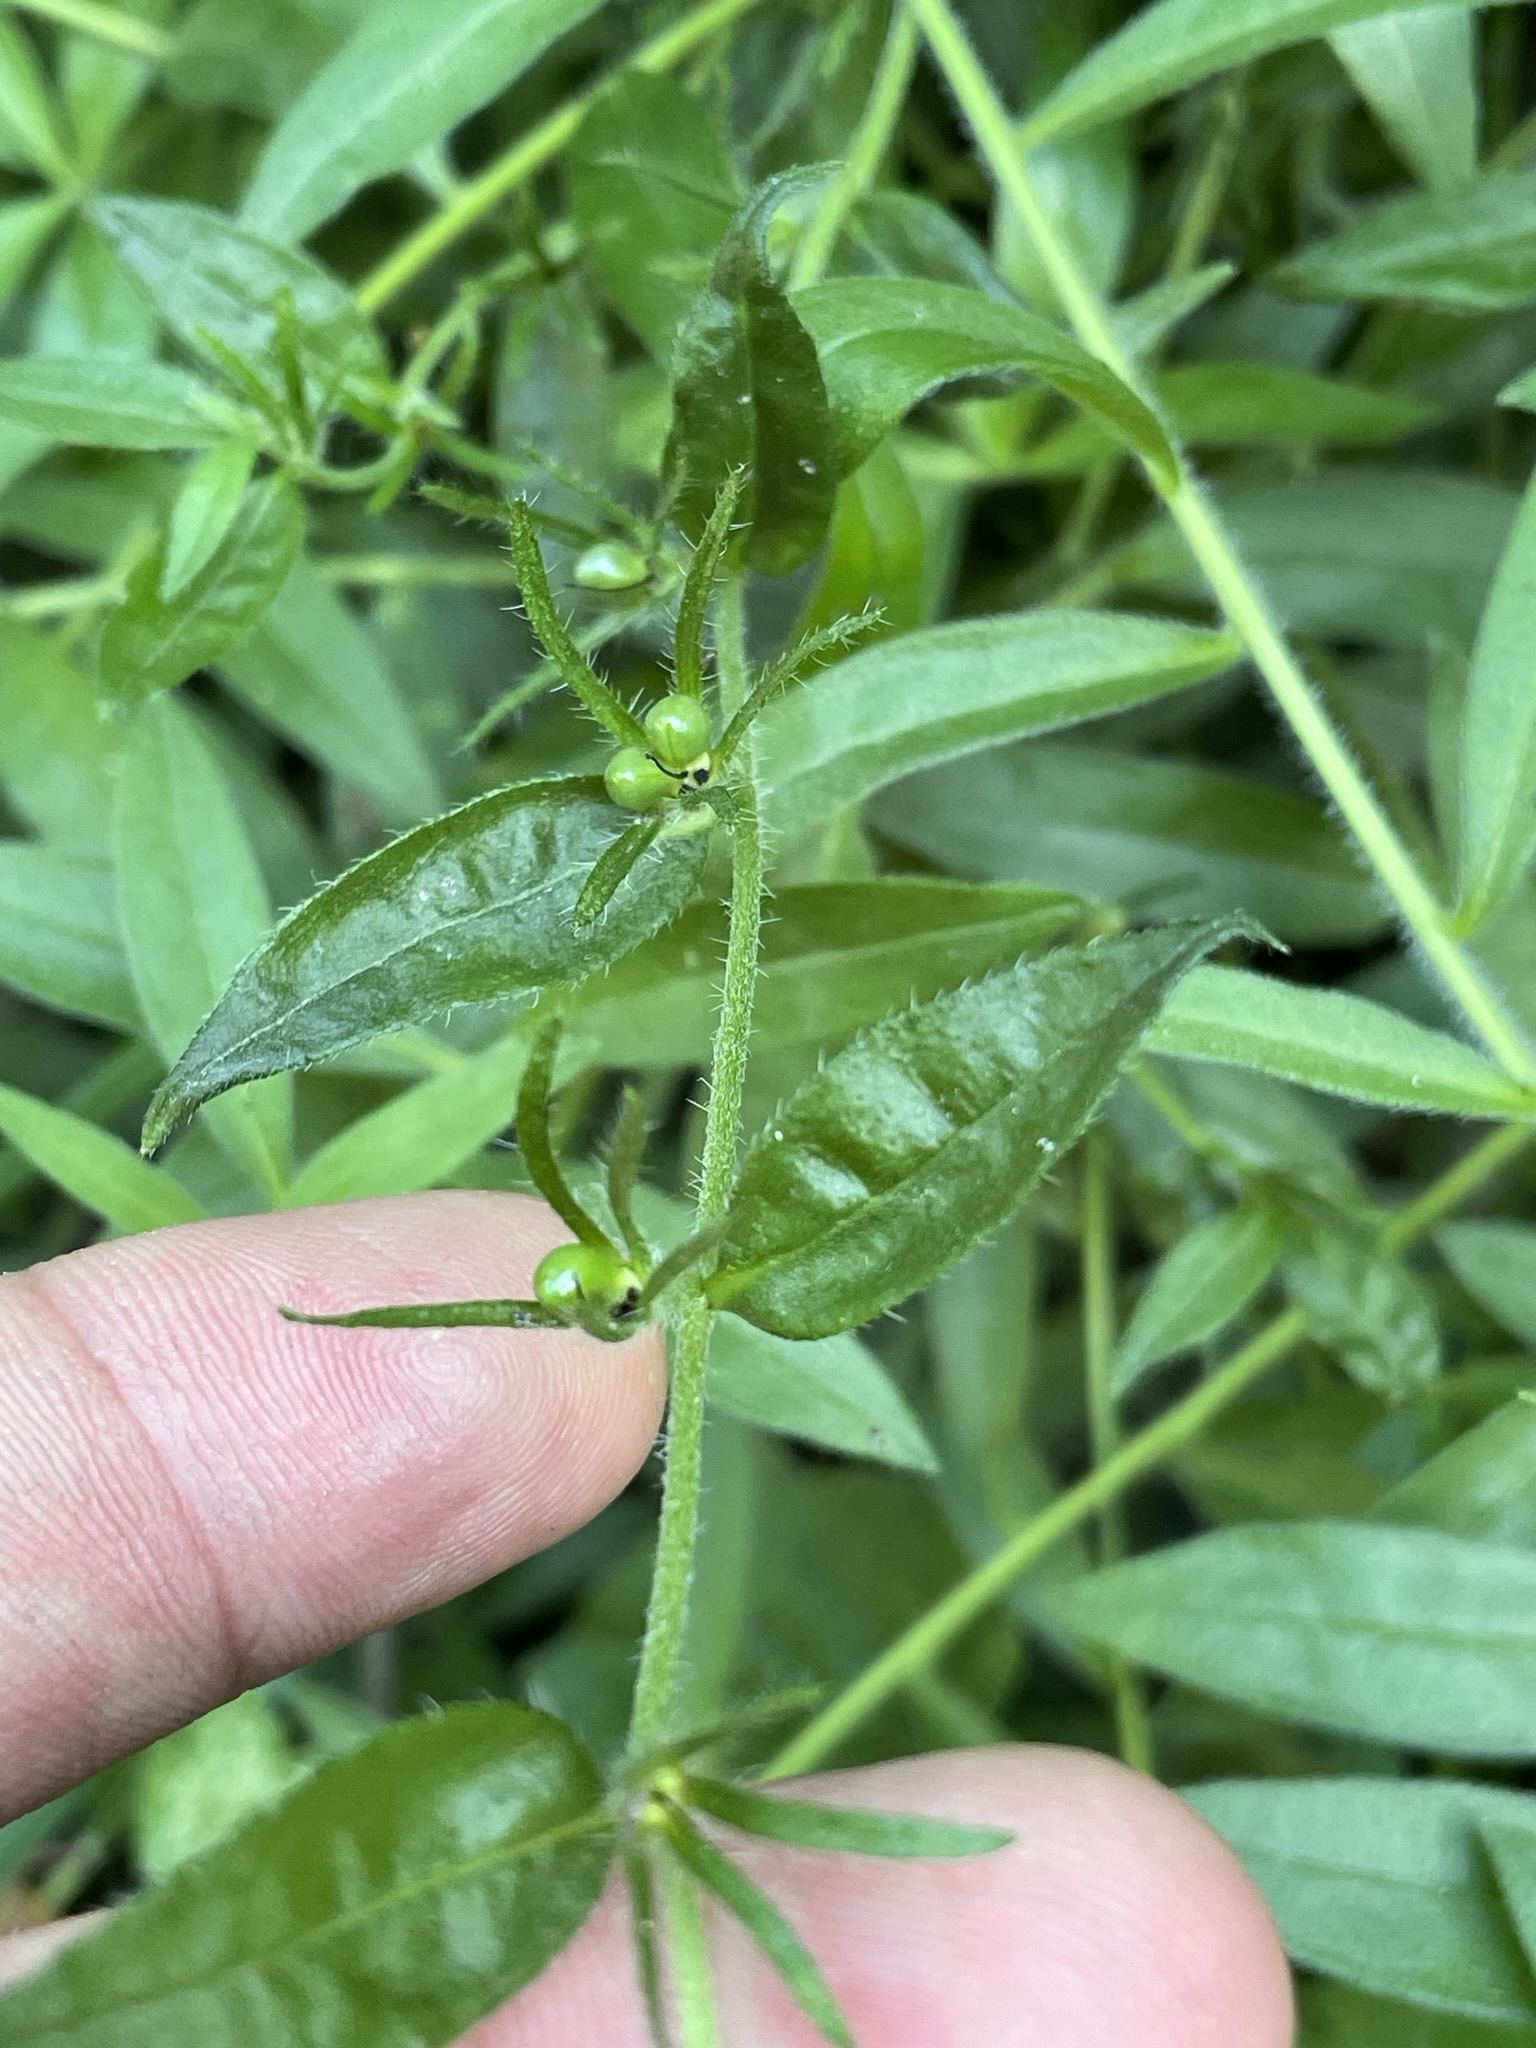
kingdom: Plantae
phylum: Tracheophyta
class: Magnoliopsida
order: Boraginales
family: Boraginaceae
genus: Aegonychon
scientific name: Aegonychon purpurocaeruleum
